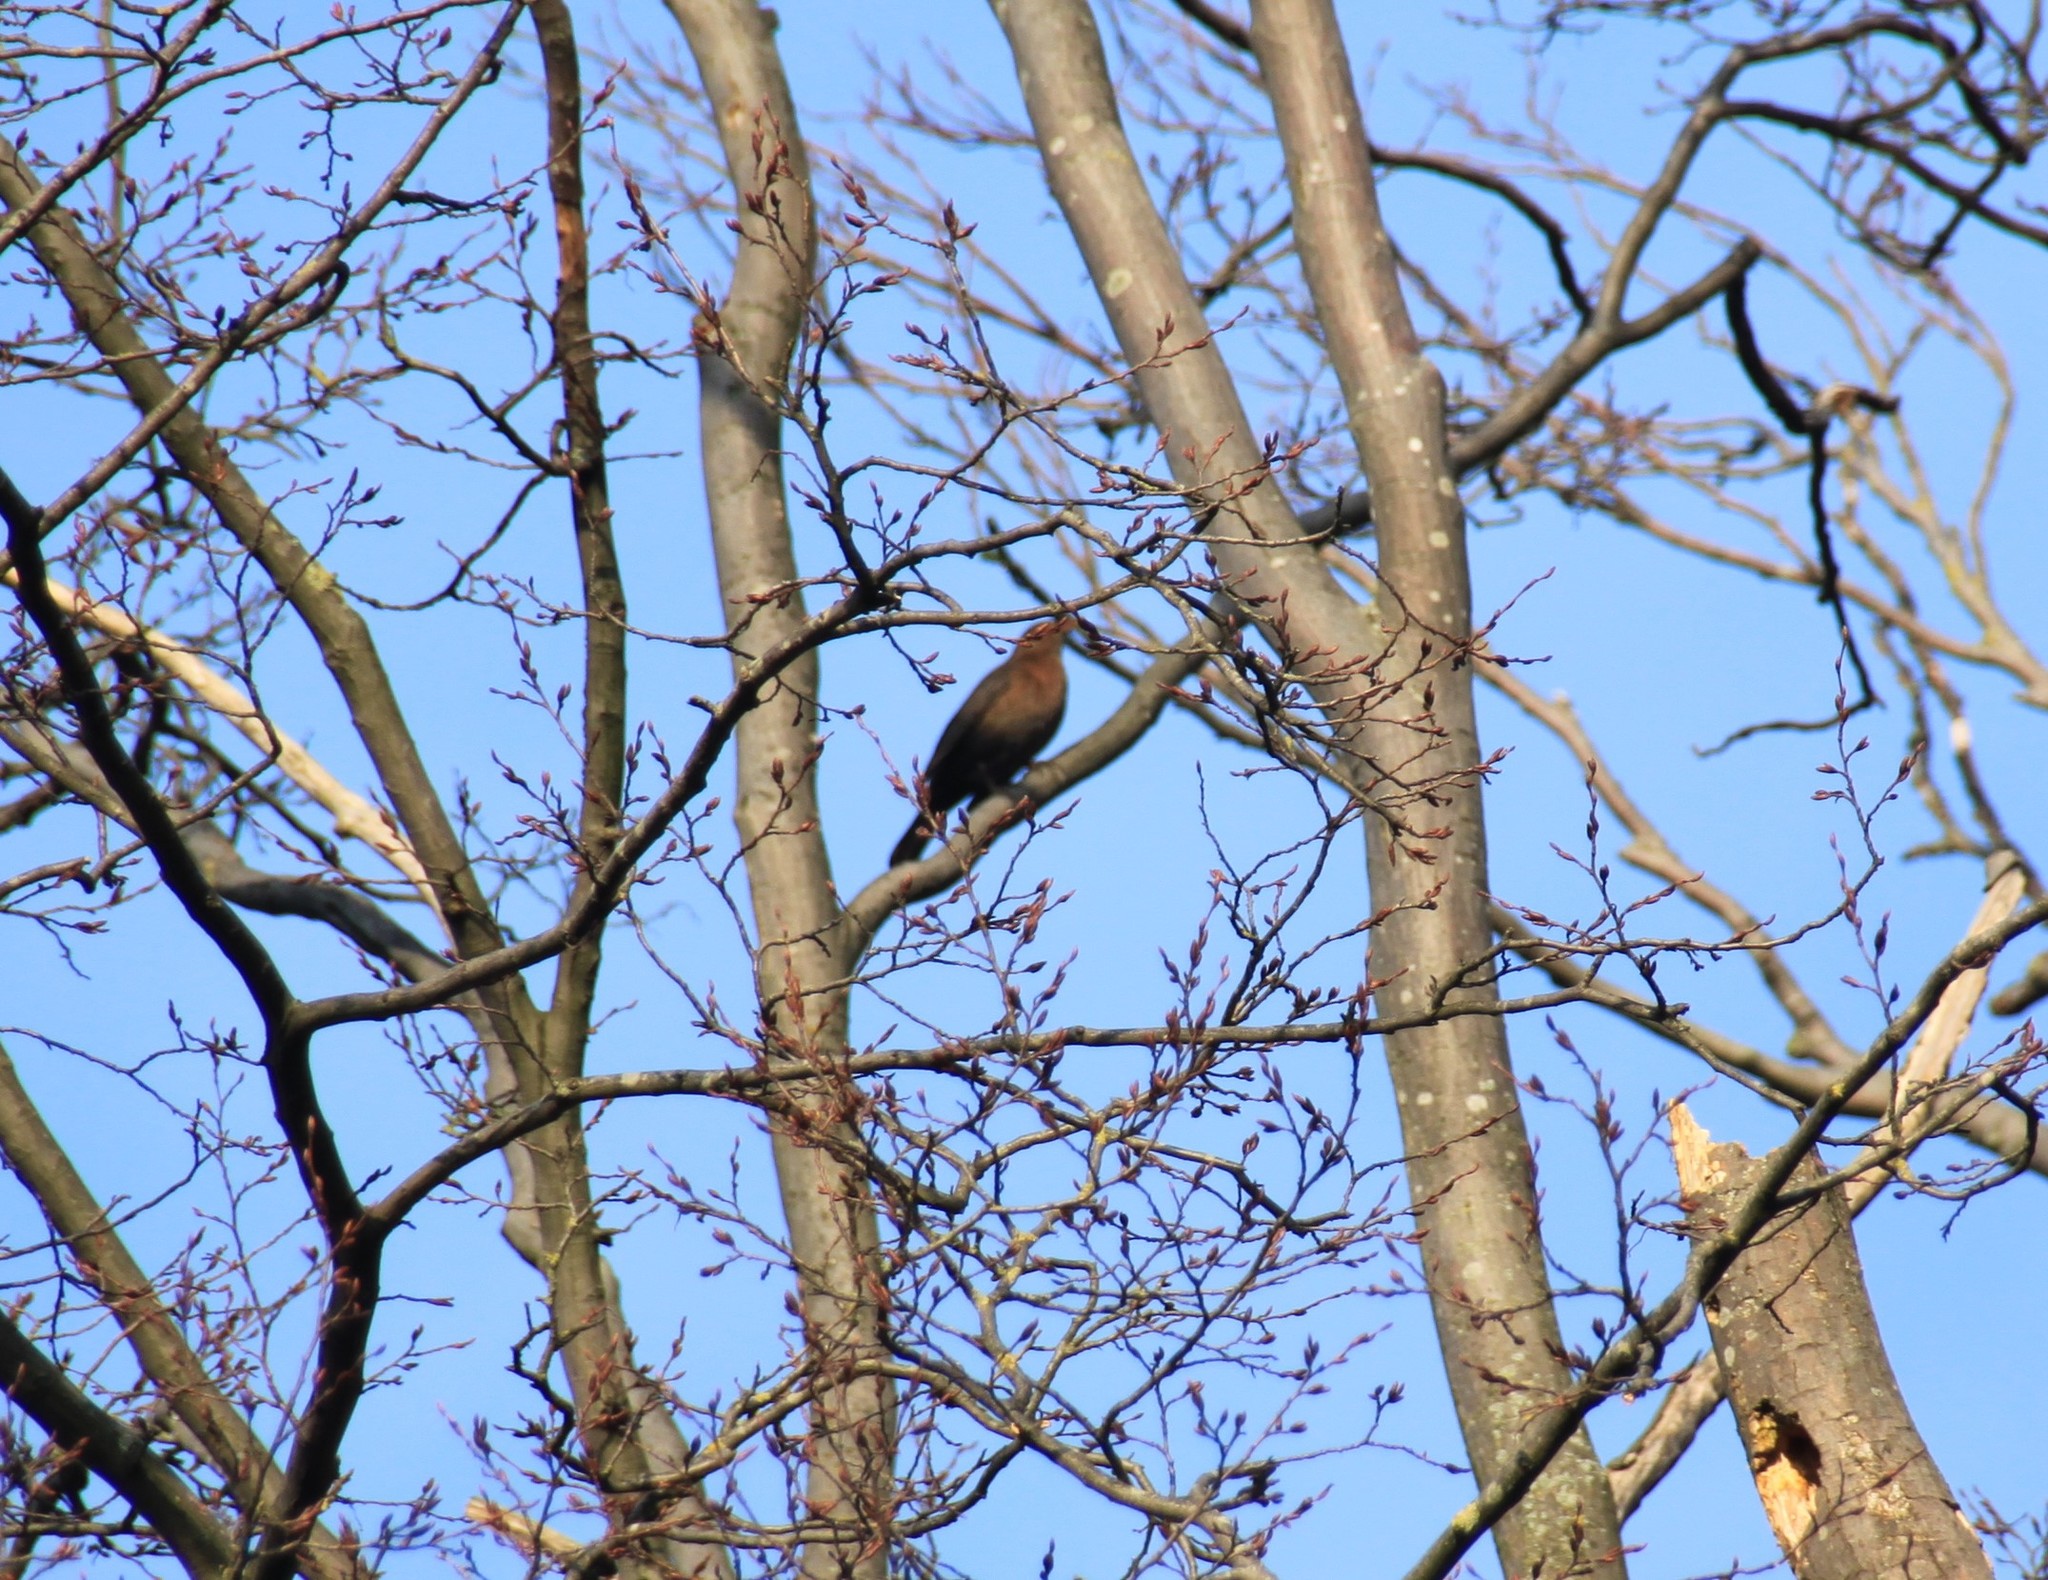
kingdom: Animalia
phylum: Chordata
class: Aves
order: Passeriformes
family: Turdidae
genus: Turdus
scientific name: Turdus merula
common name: Common blackbird
